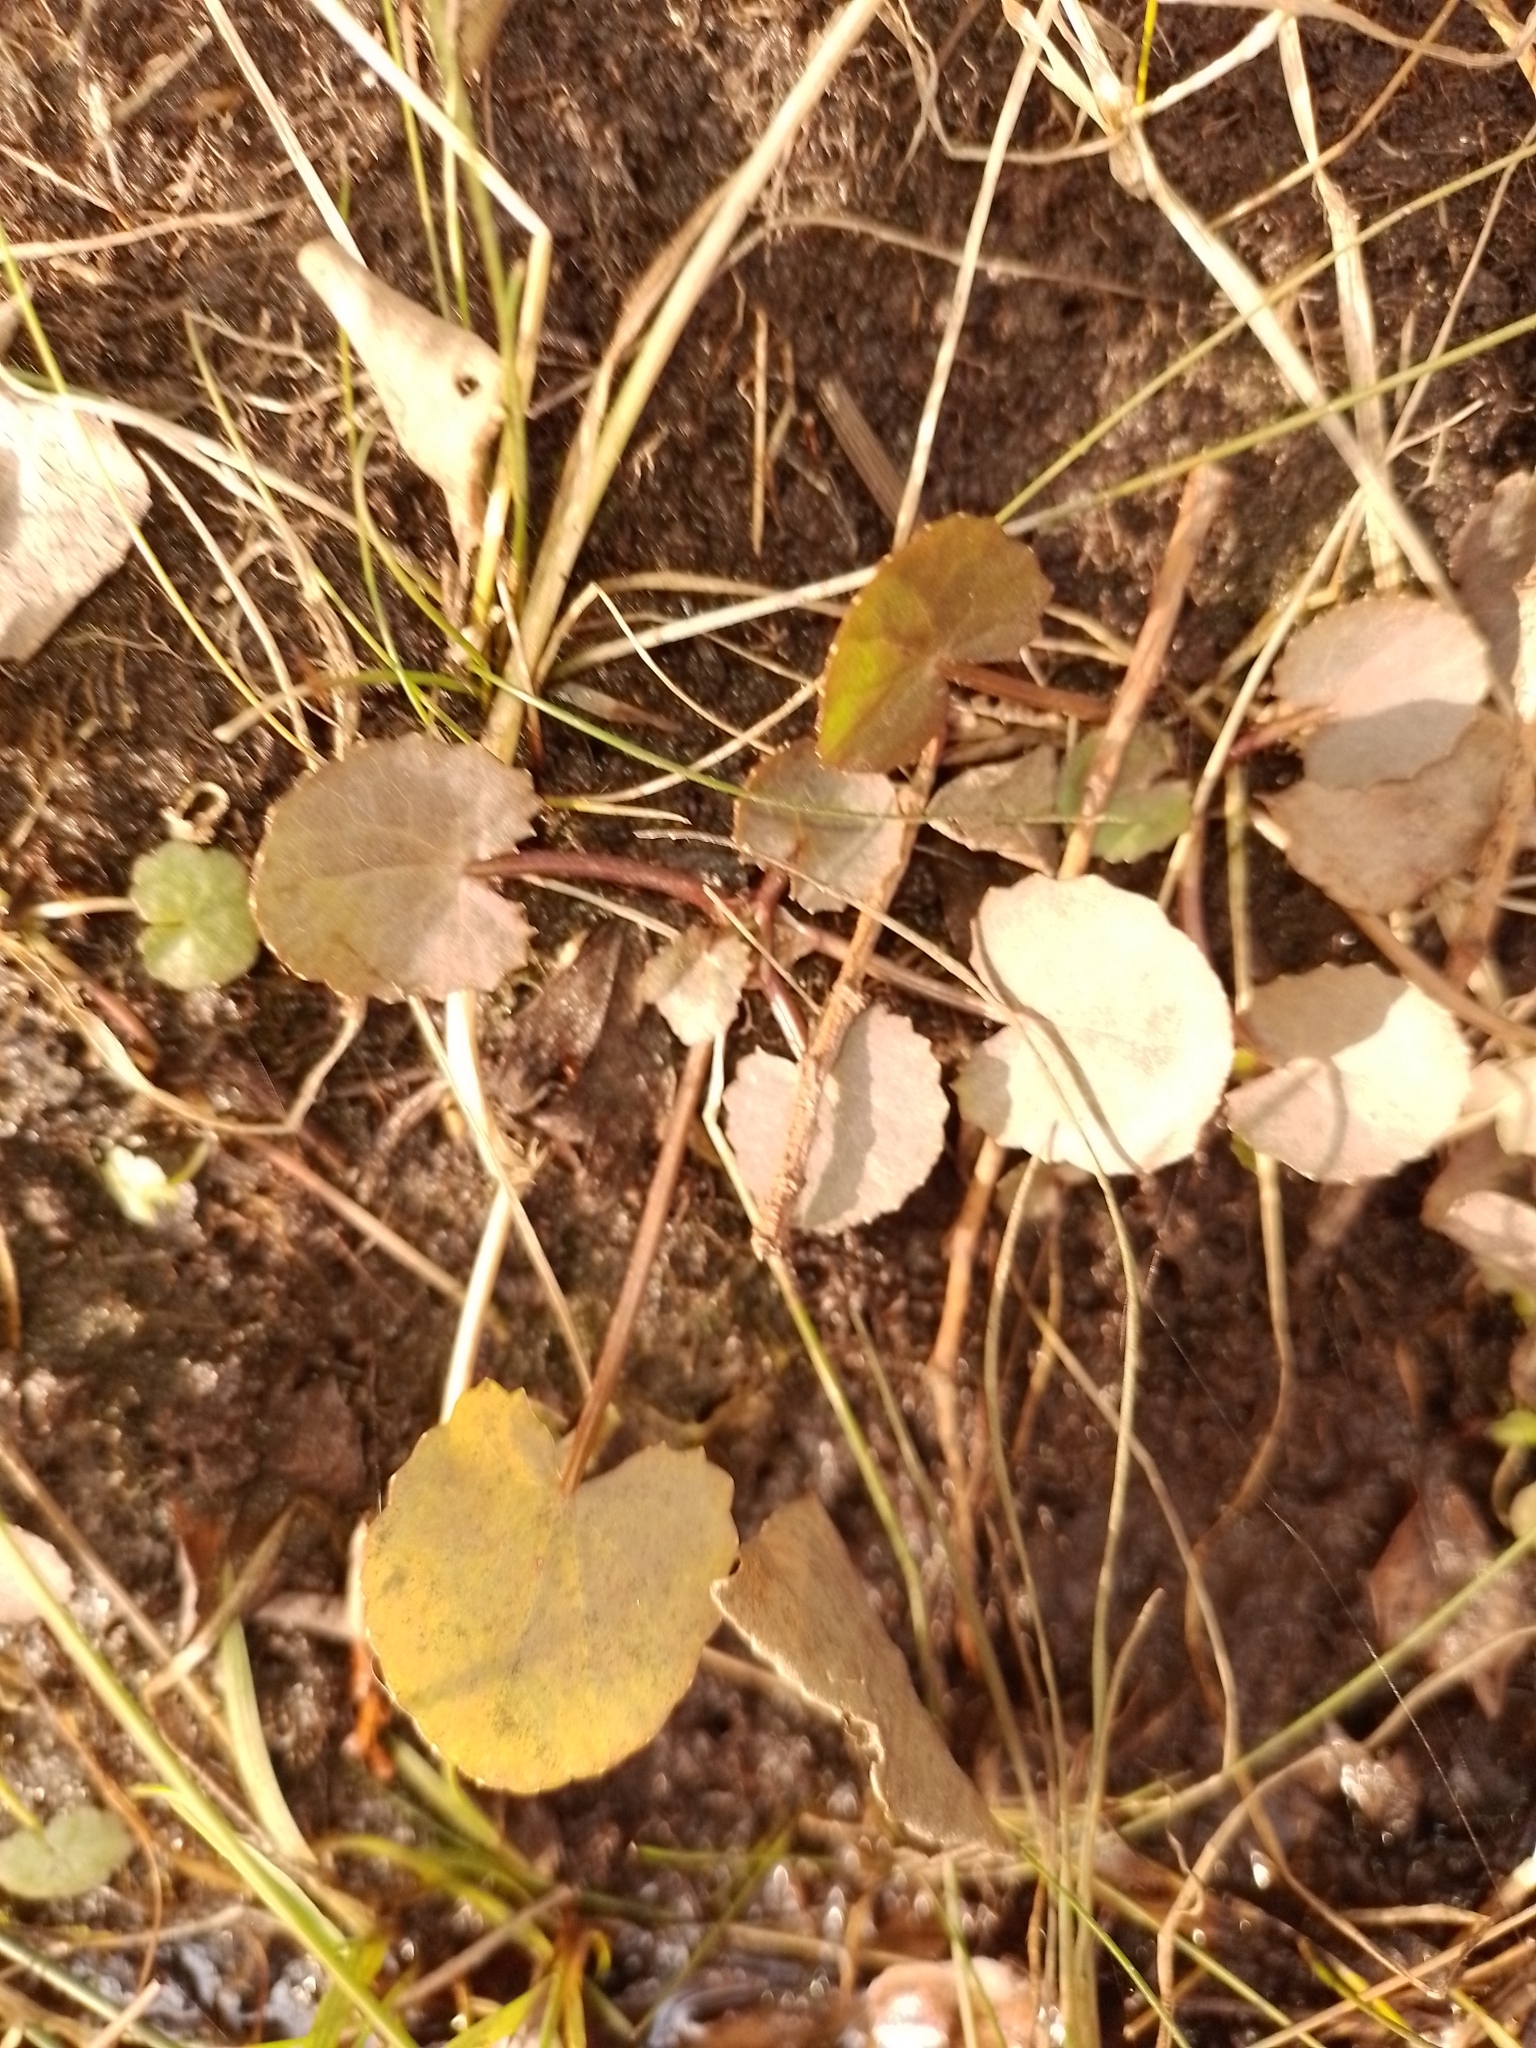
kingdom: Plantae
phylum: Tracheophyta
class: Magnoliopsida
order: Apiales
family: Apiaceae
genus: Centella
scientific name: Centella uniflora
